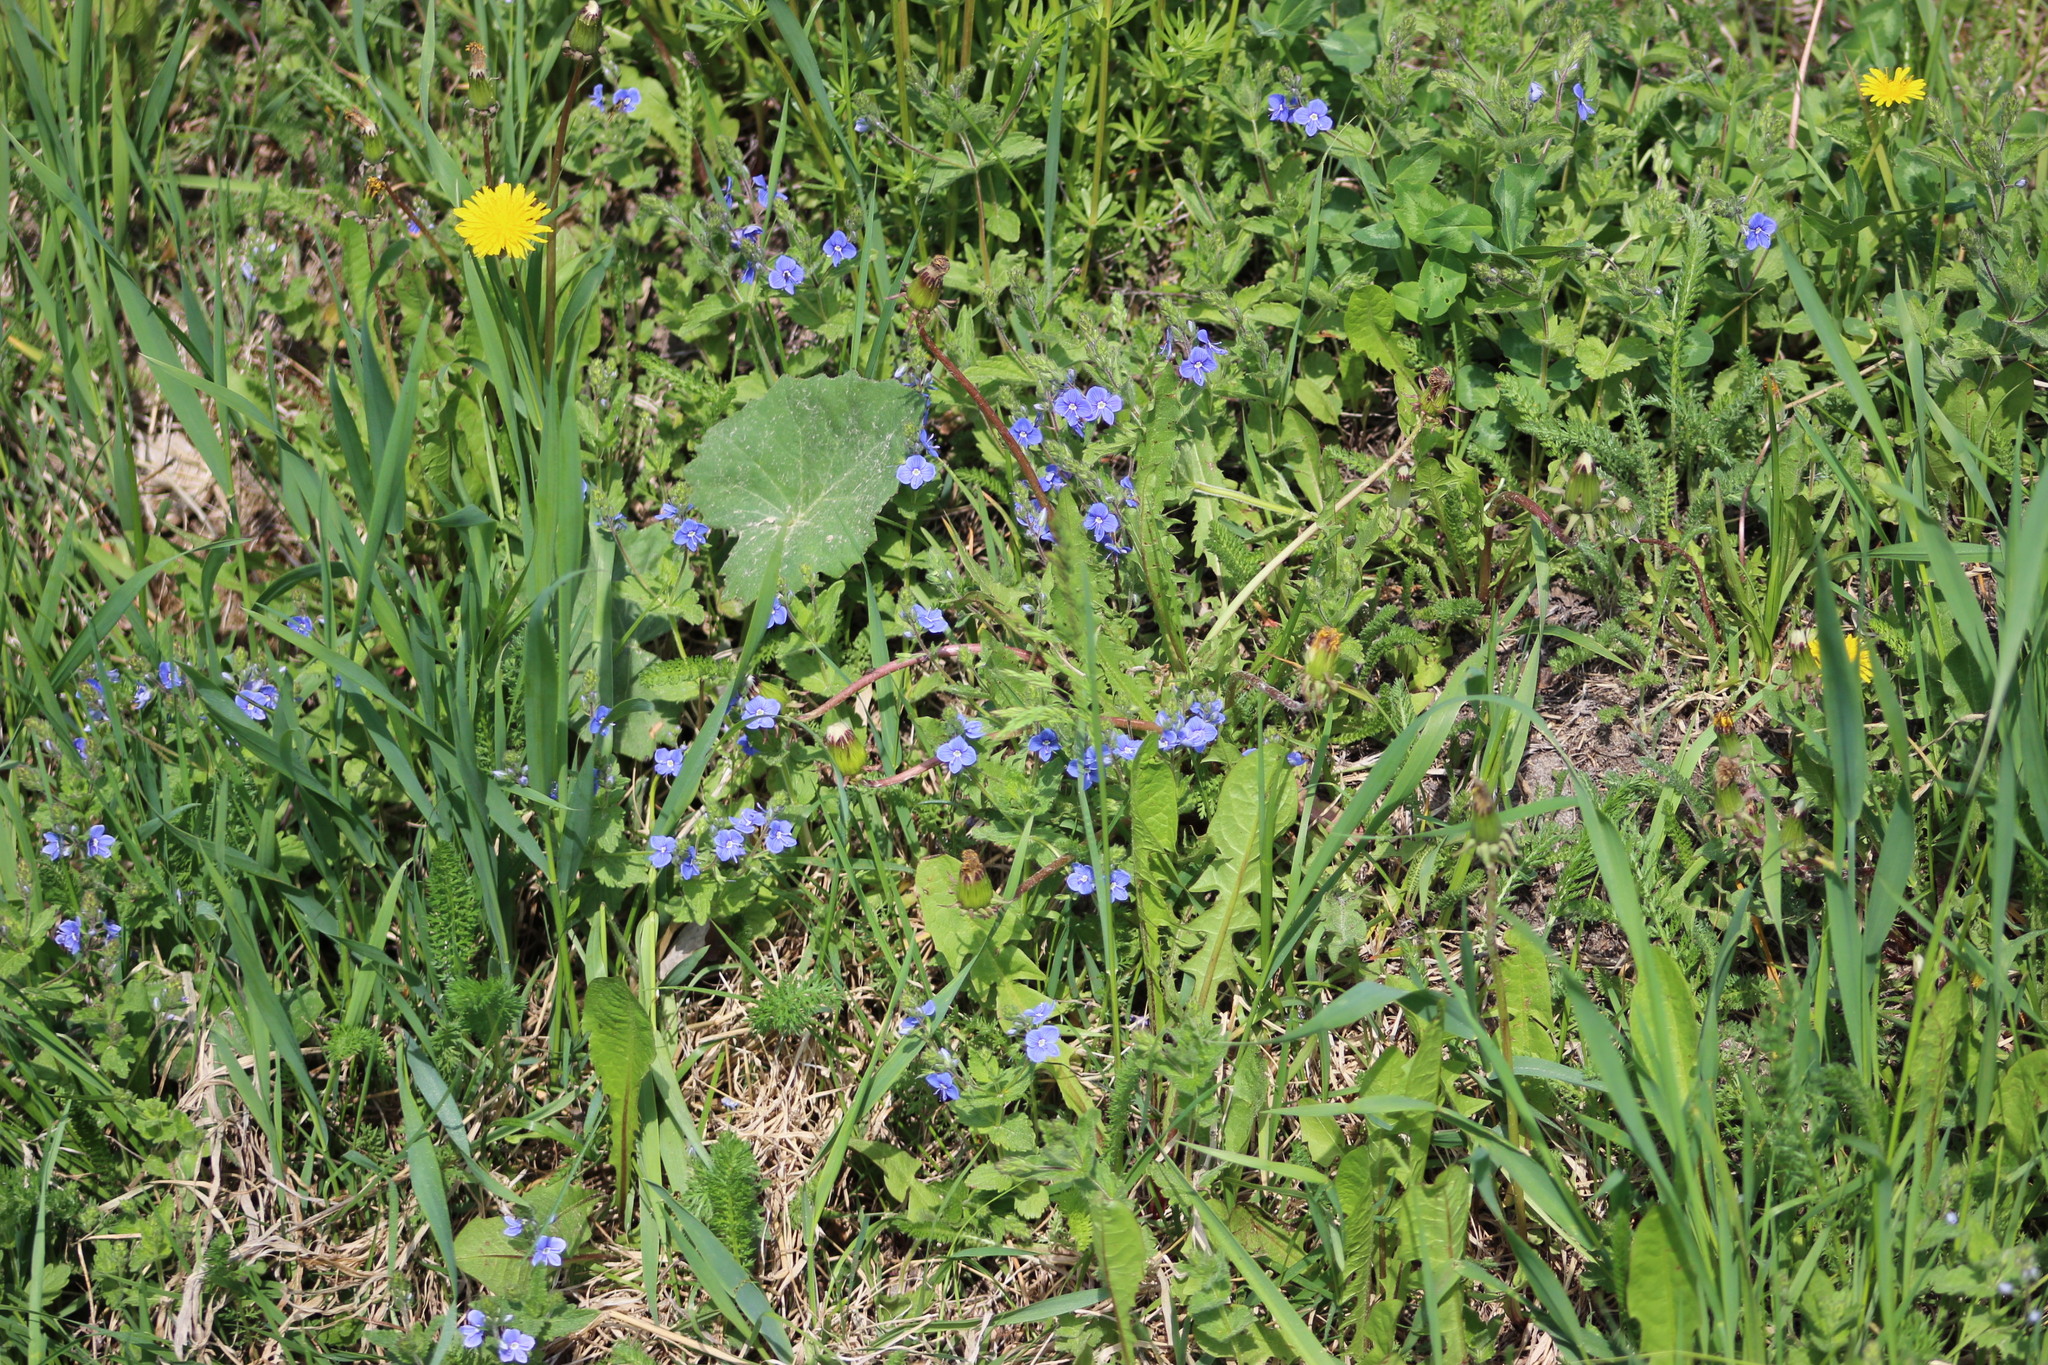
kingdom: Plantae
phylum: Tracheophyta
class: Magnoliopsida
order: Lamiales
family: Plantaginaceae
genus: Veronica
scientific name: Veronica chamaedrys
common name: Germander speedwell
